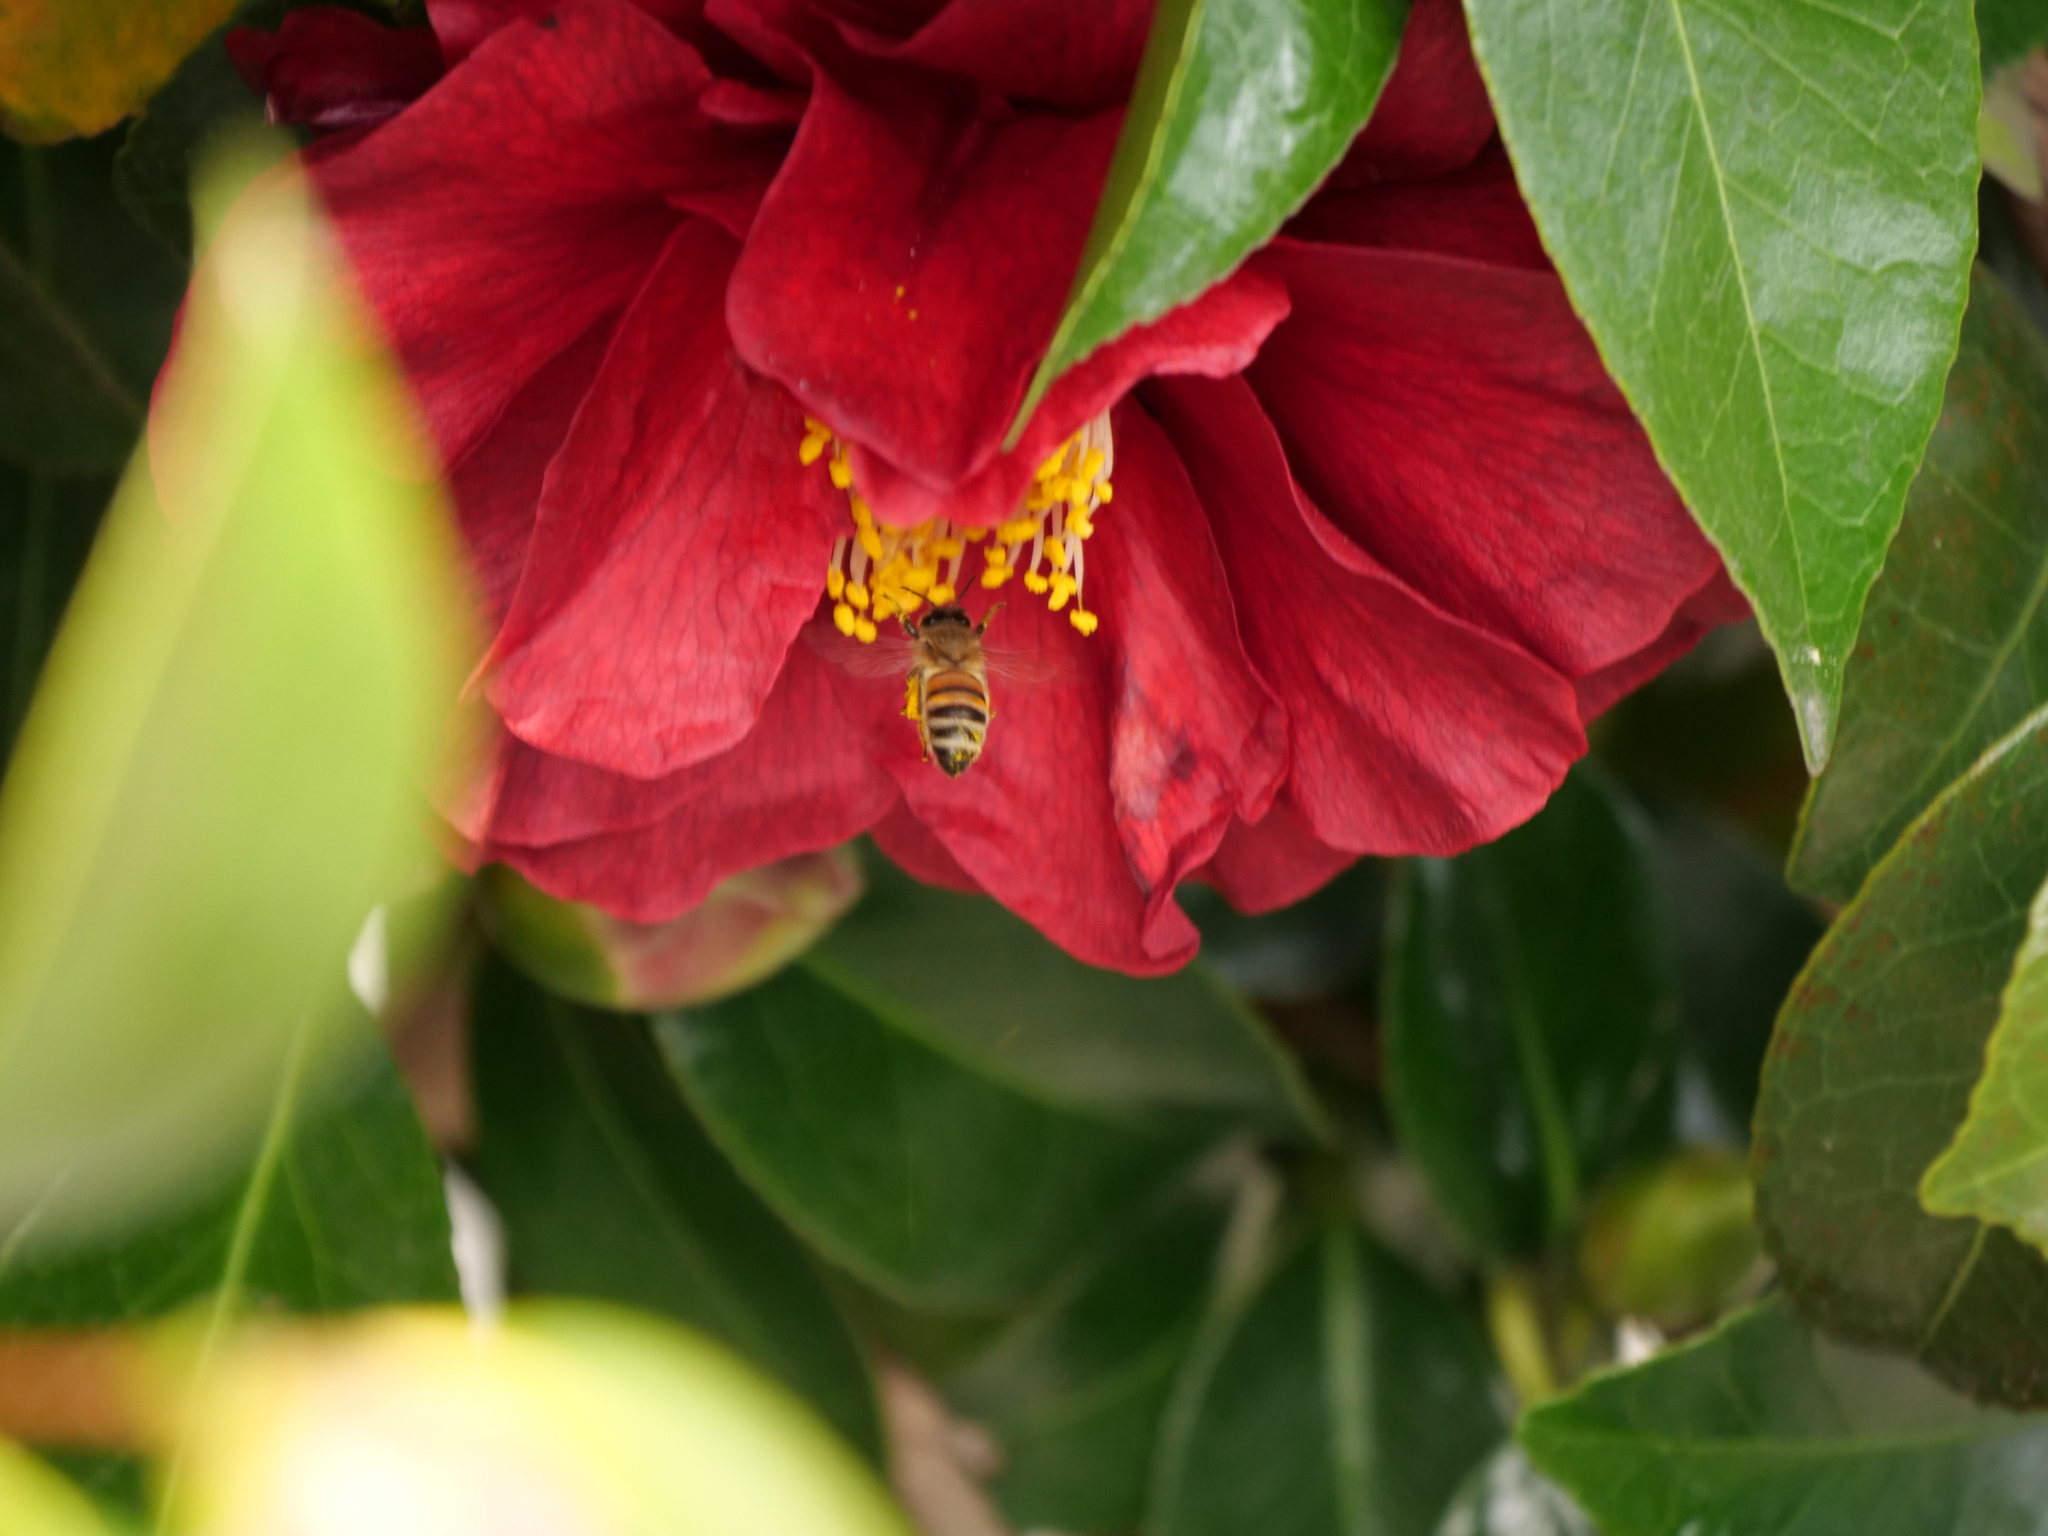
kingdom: Animalia
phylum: Arthropoda
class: Insecta
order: Hymenoptera
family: Apidae
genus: Apis
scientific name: Apis mellifera
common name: Honey bee
